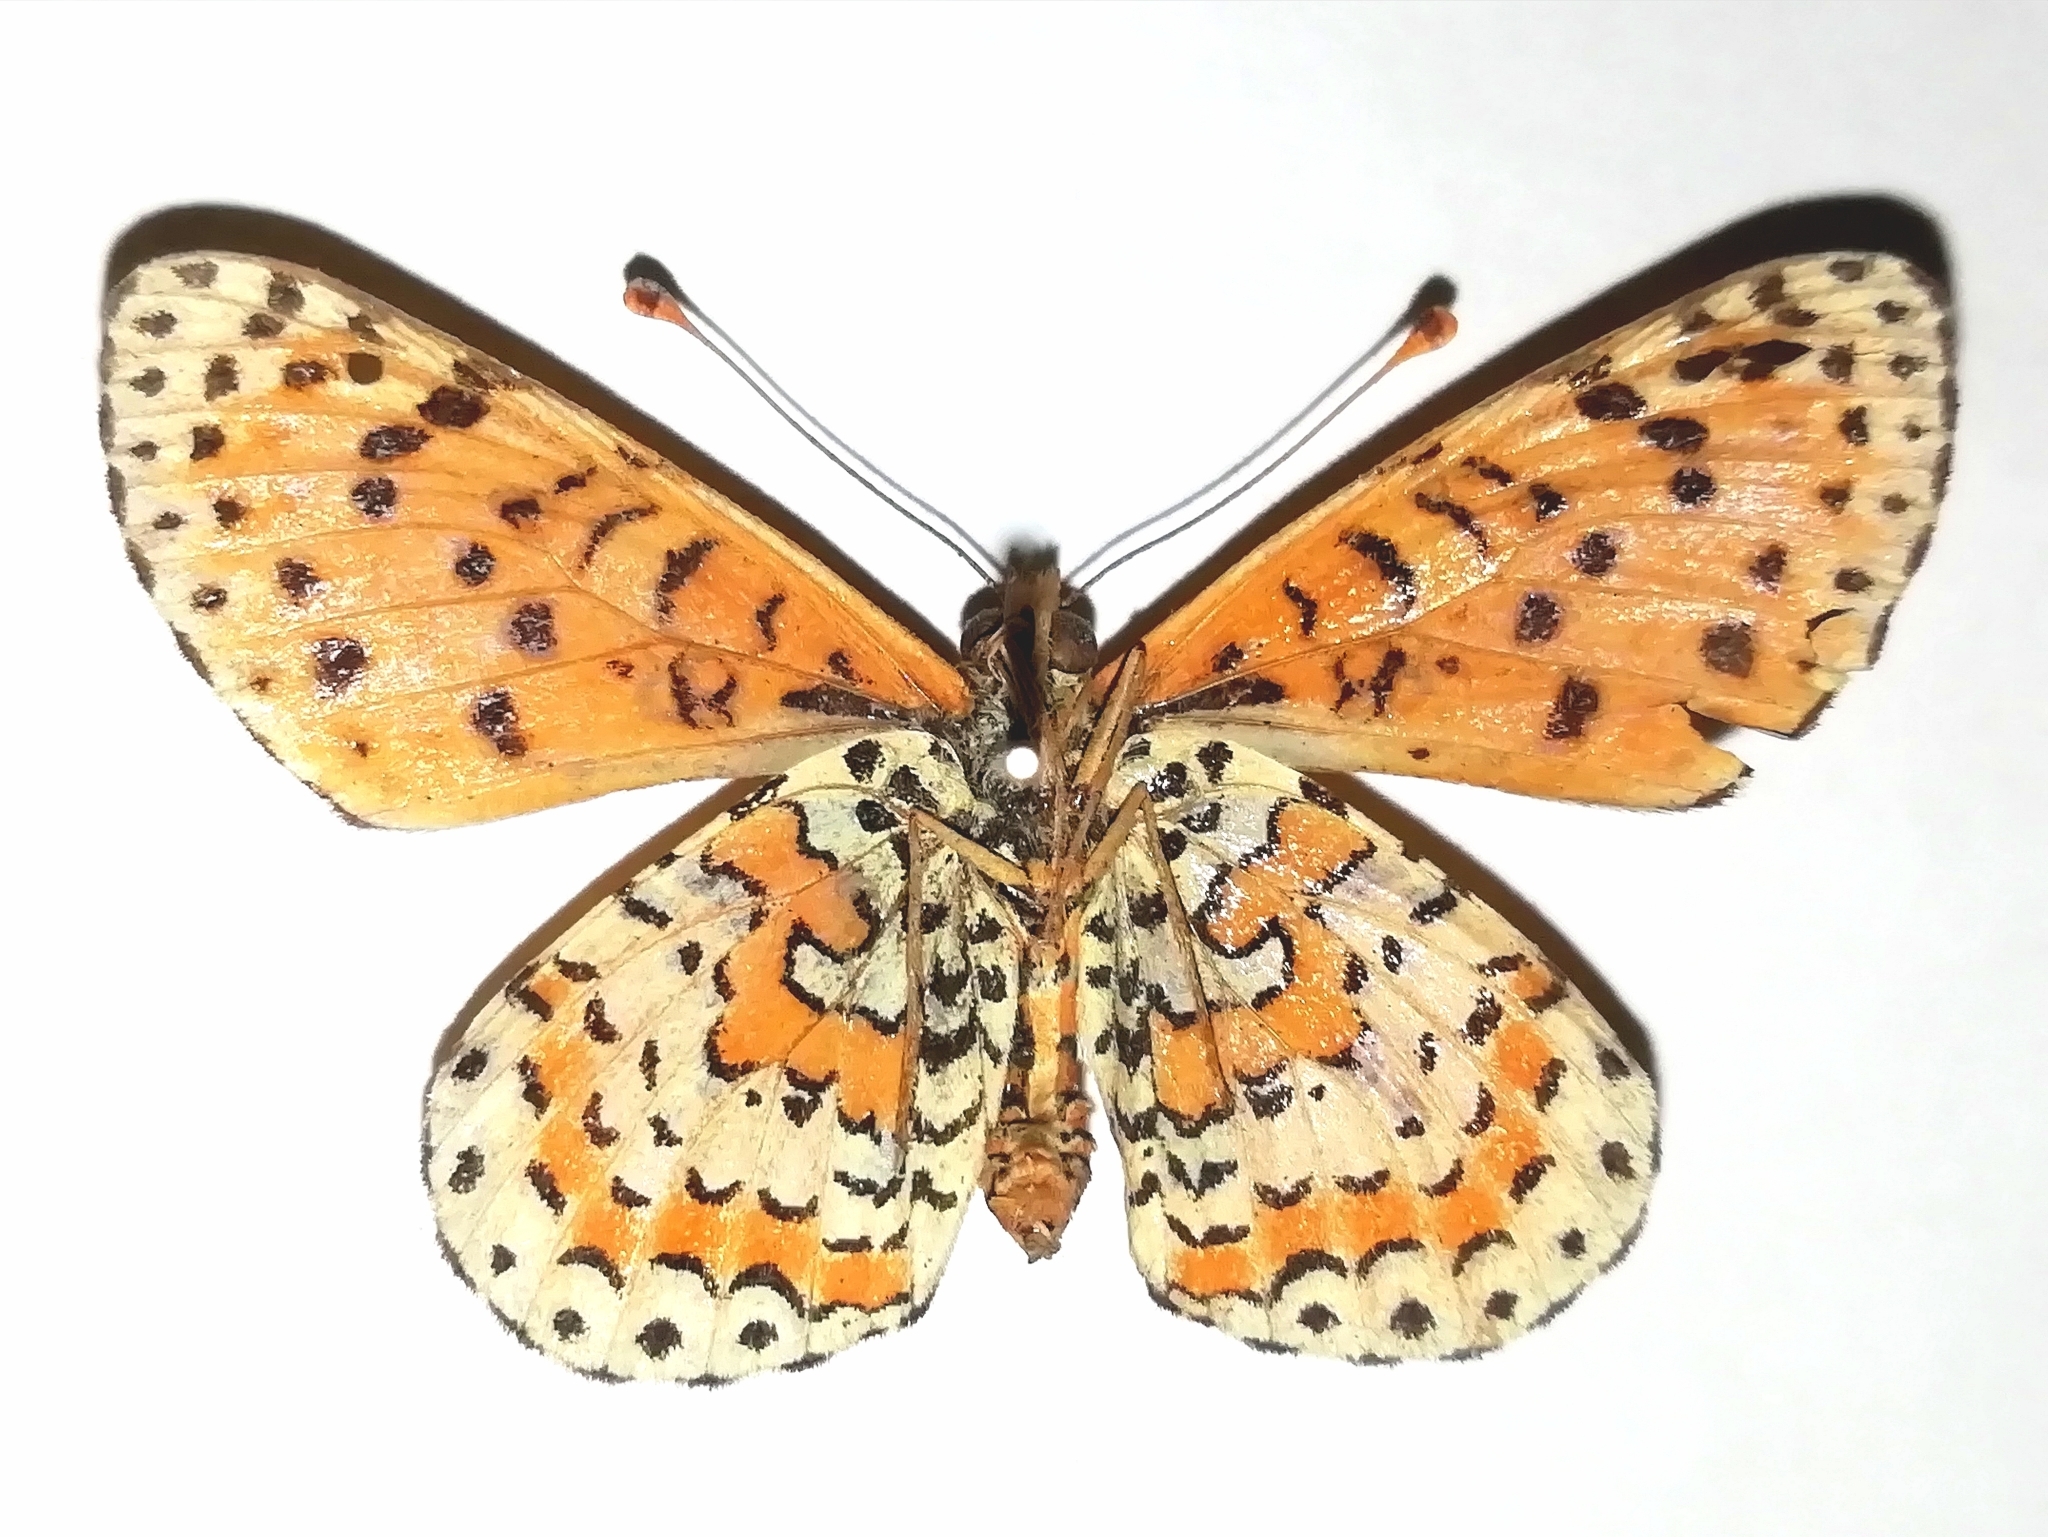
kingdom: Animalia
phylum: Arthropoda
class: Insecta
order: Lepidoptera
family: Nymphalidae
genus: Melitaea
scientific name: Melitaea didyma
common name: Spotted fritillary
